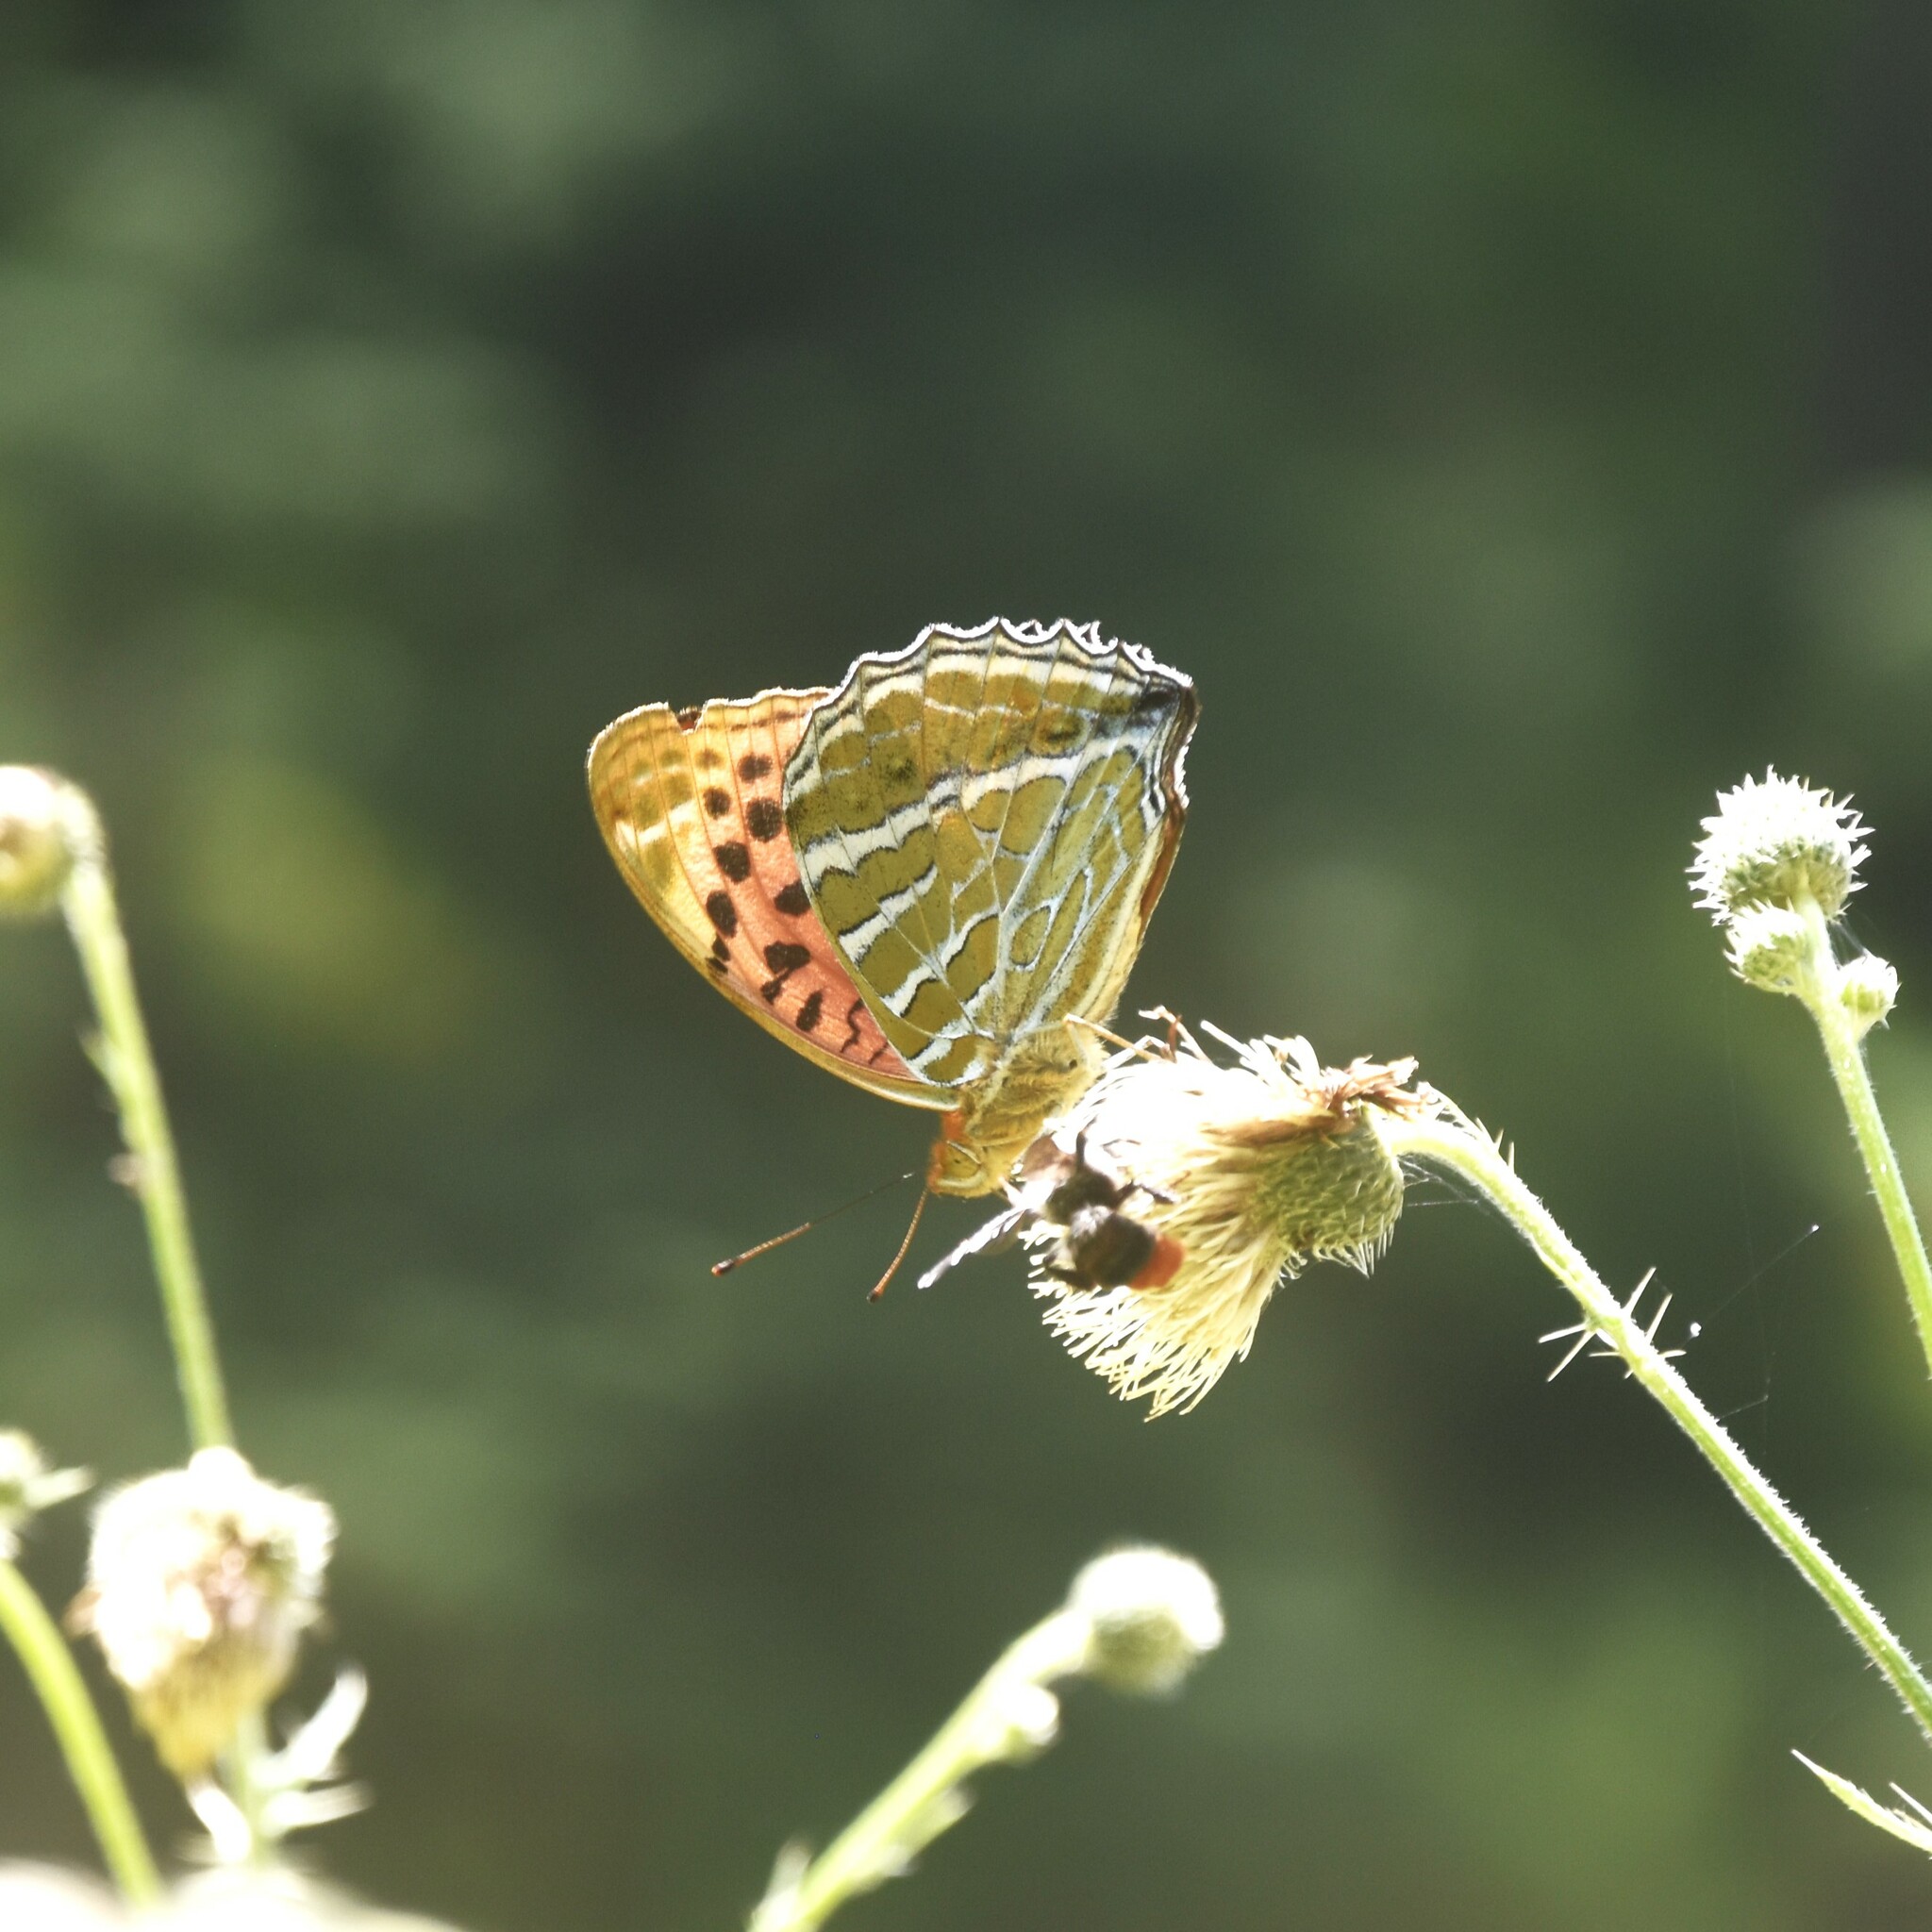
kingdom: Animalia
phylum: Arthropoda
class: Insecta
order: Lepidoptera
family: Nymphalidae
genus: Childrena
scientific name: Childrena childreni
